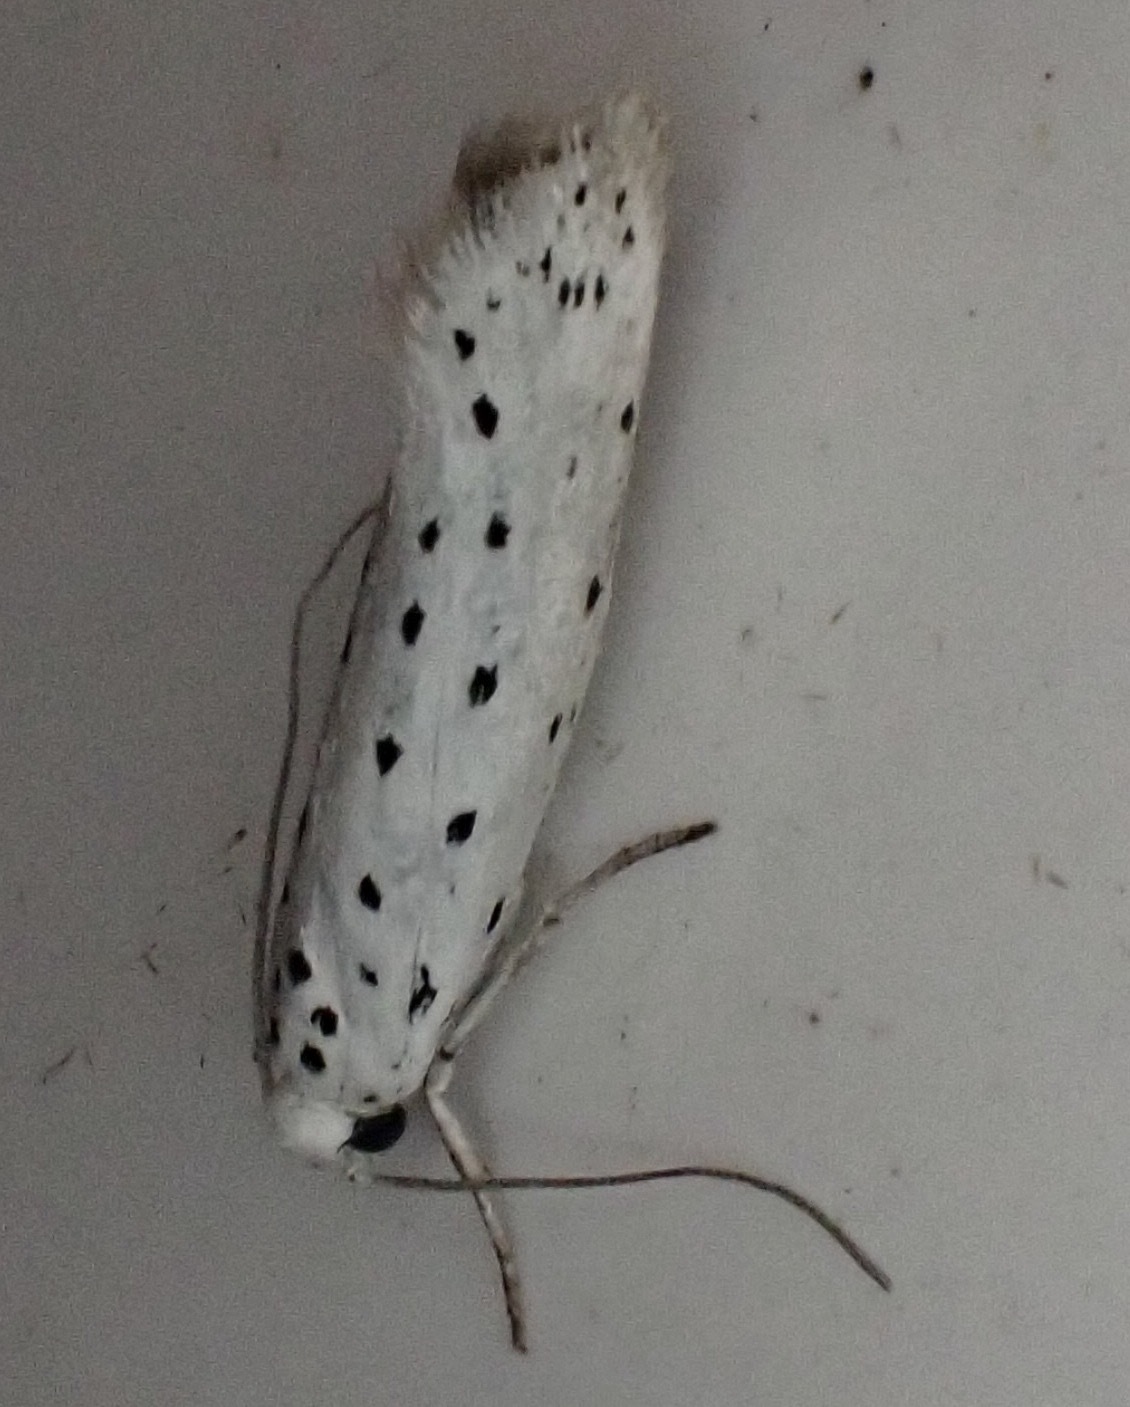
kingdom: Animalia
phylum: Arthropoda
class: Insecta
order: Lepidoptera
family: Yponomeutidae
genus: Yponomeuta
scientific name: Yponomeuta
